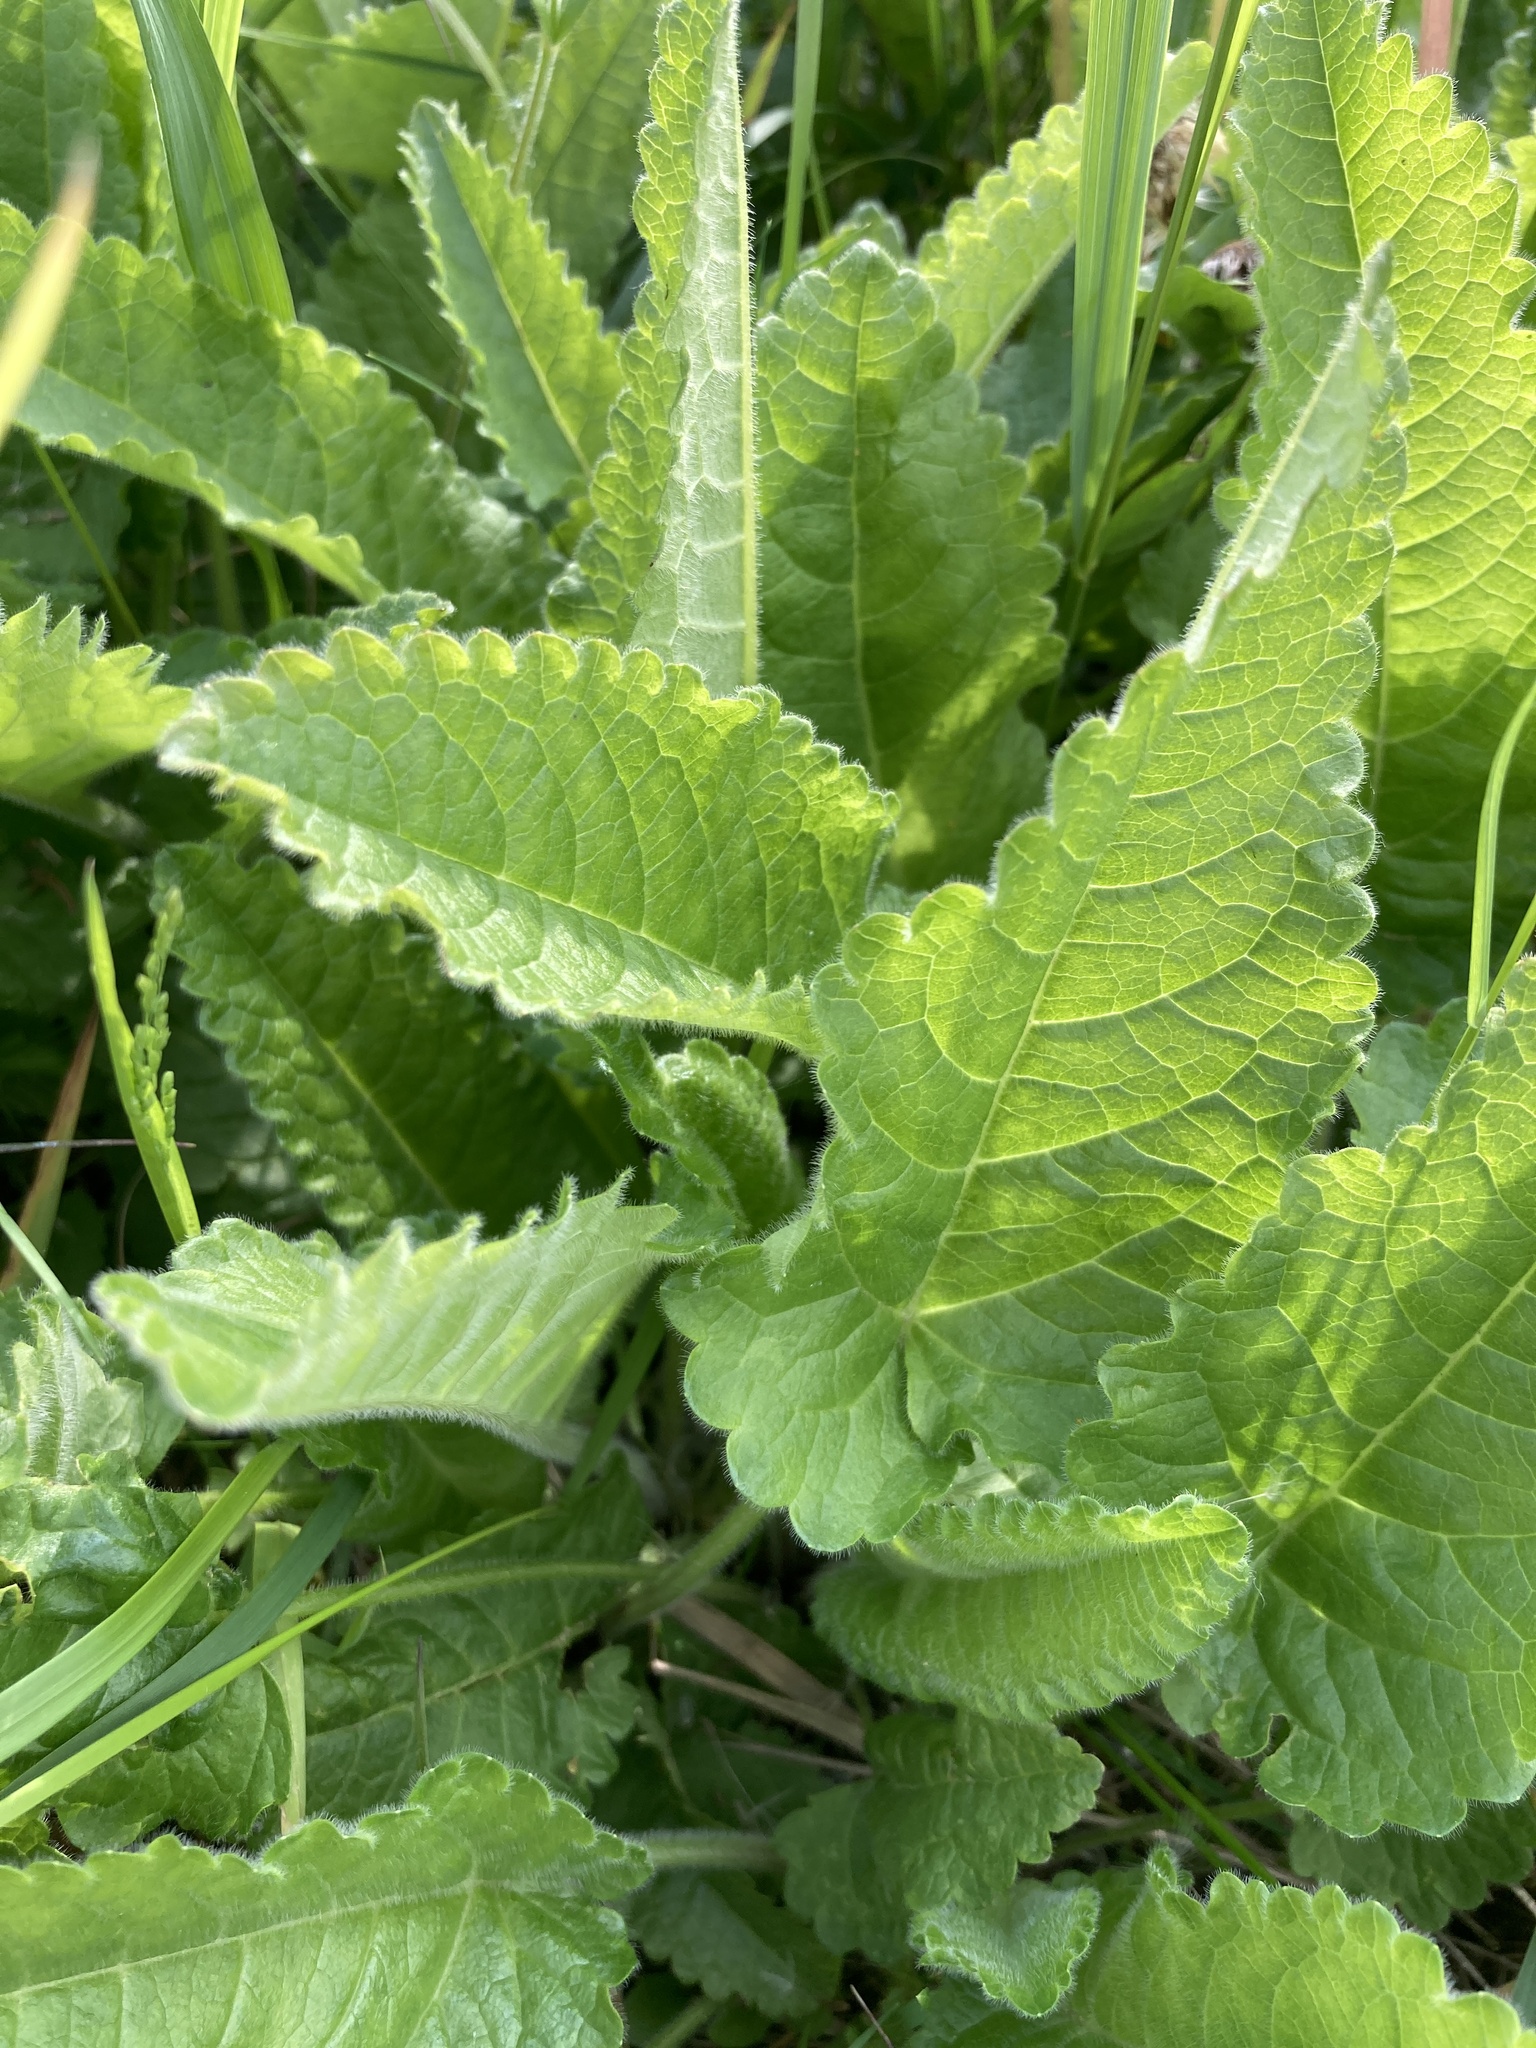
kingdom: Plantae
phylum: Tracheophyta
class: Magnoliopsida
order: Lamiales
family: Lamiaceae
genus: Betonica
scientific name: Betonica officinalis
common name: Bishop's-wort
